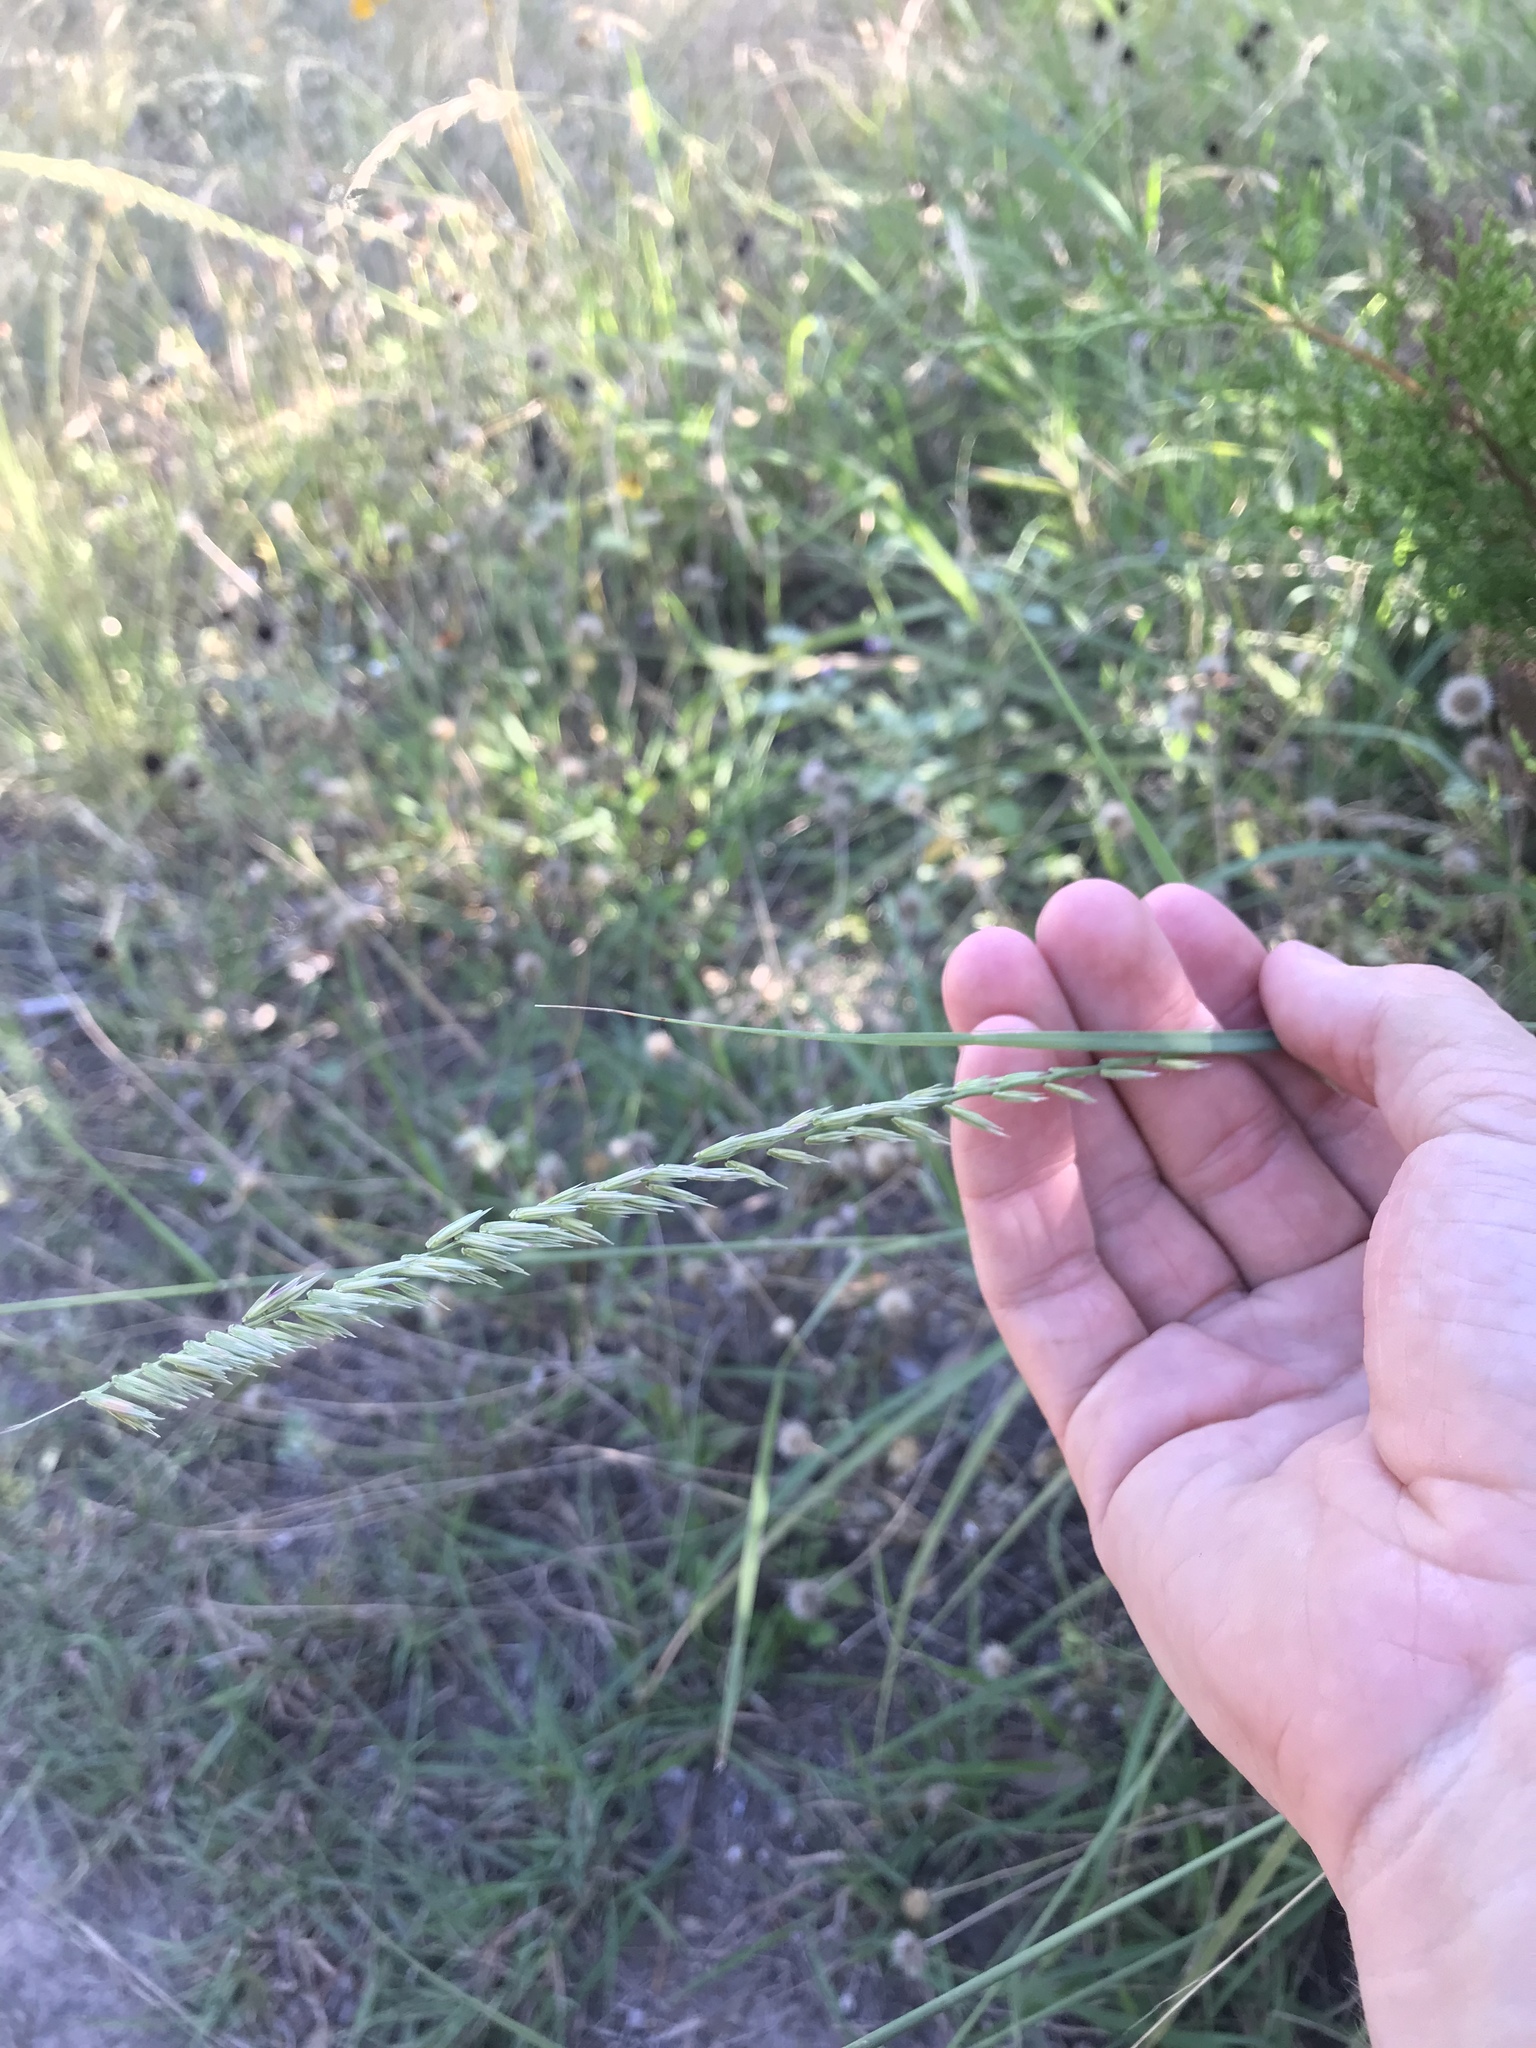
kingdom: Plantae
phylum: Tracheophyta
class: Liliopsida
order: Poales
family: Poaceae
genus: Bouteloua
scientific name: Bouteloua curtipendula
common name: Side-oats grama
